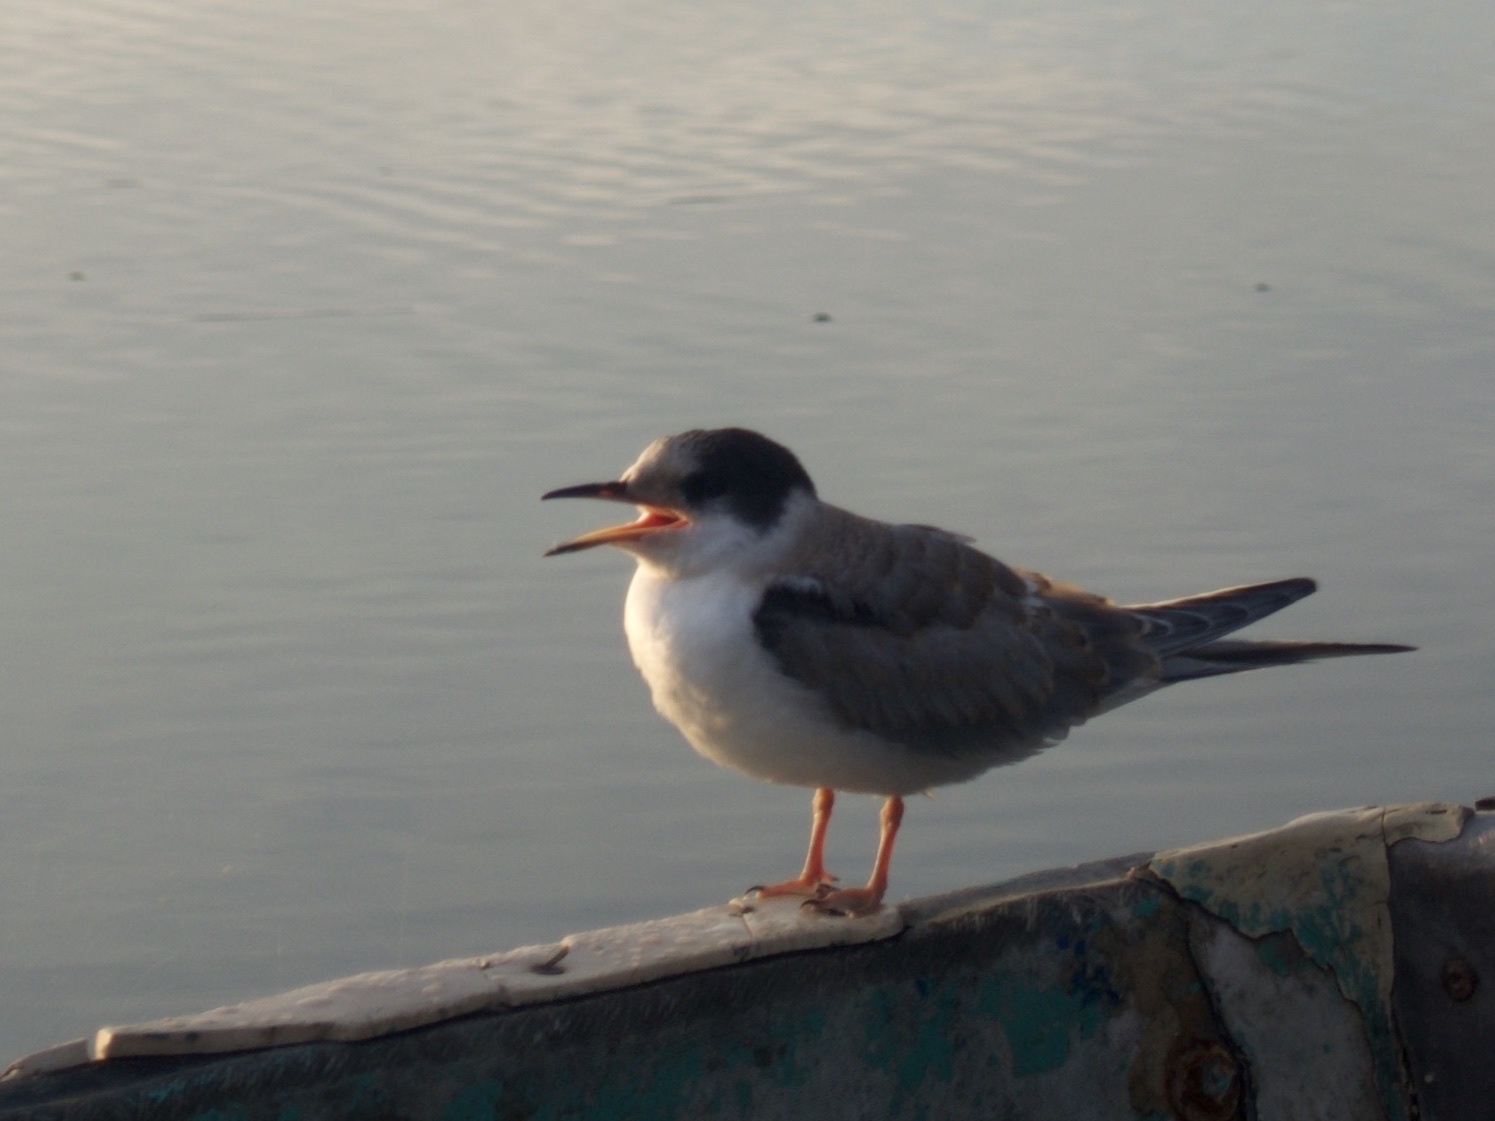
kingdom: Animalia
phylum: Chordata
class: Aves
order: Charadriiformes
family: Laridae
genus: Sterna
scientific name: Sterna hirundo
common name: Common tern
